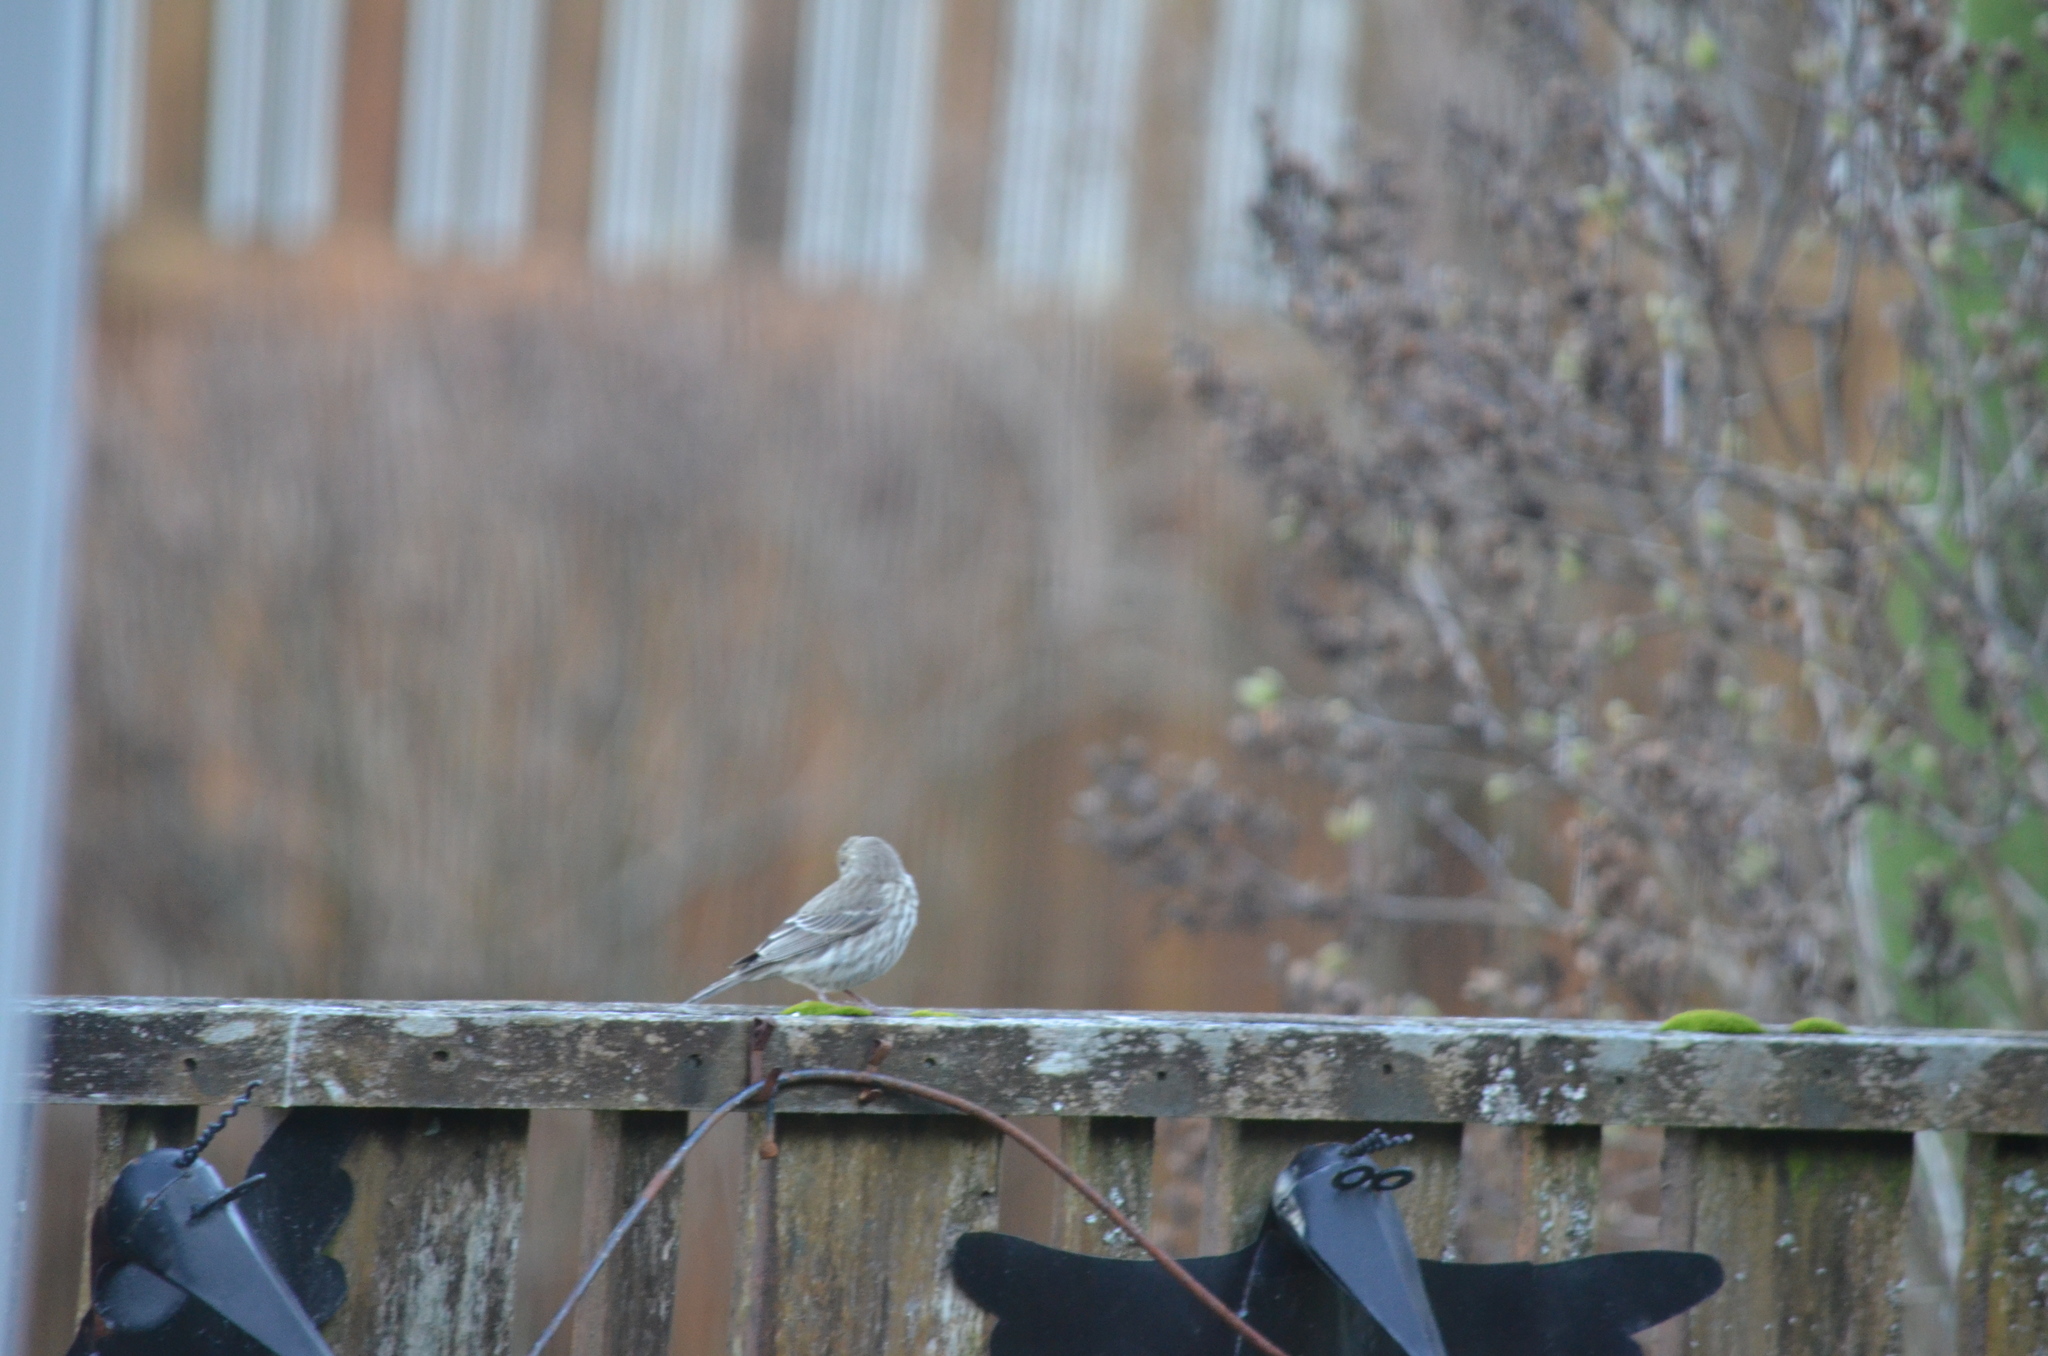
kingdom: Animalia
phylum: Chordata
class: Aves
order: Passeriformes
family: Fringillidae
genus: Haemorhous
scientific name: Haemorhous mexicanus
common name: House finch
